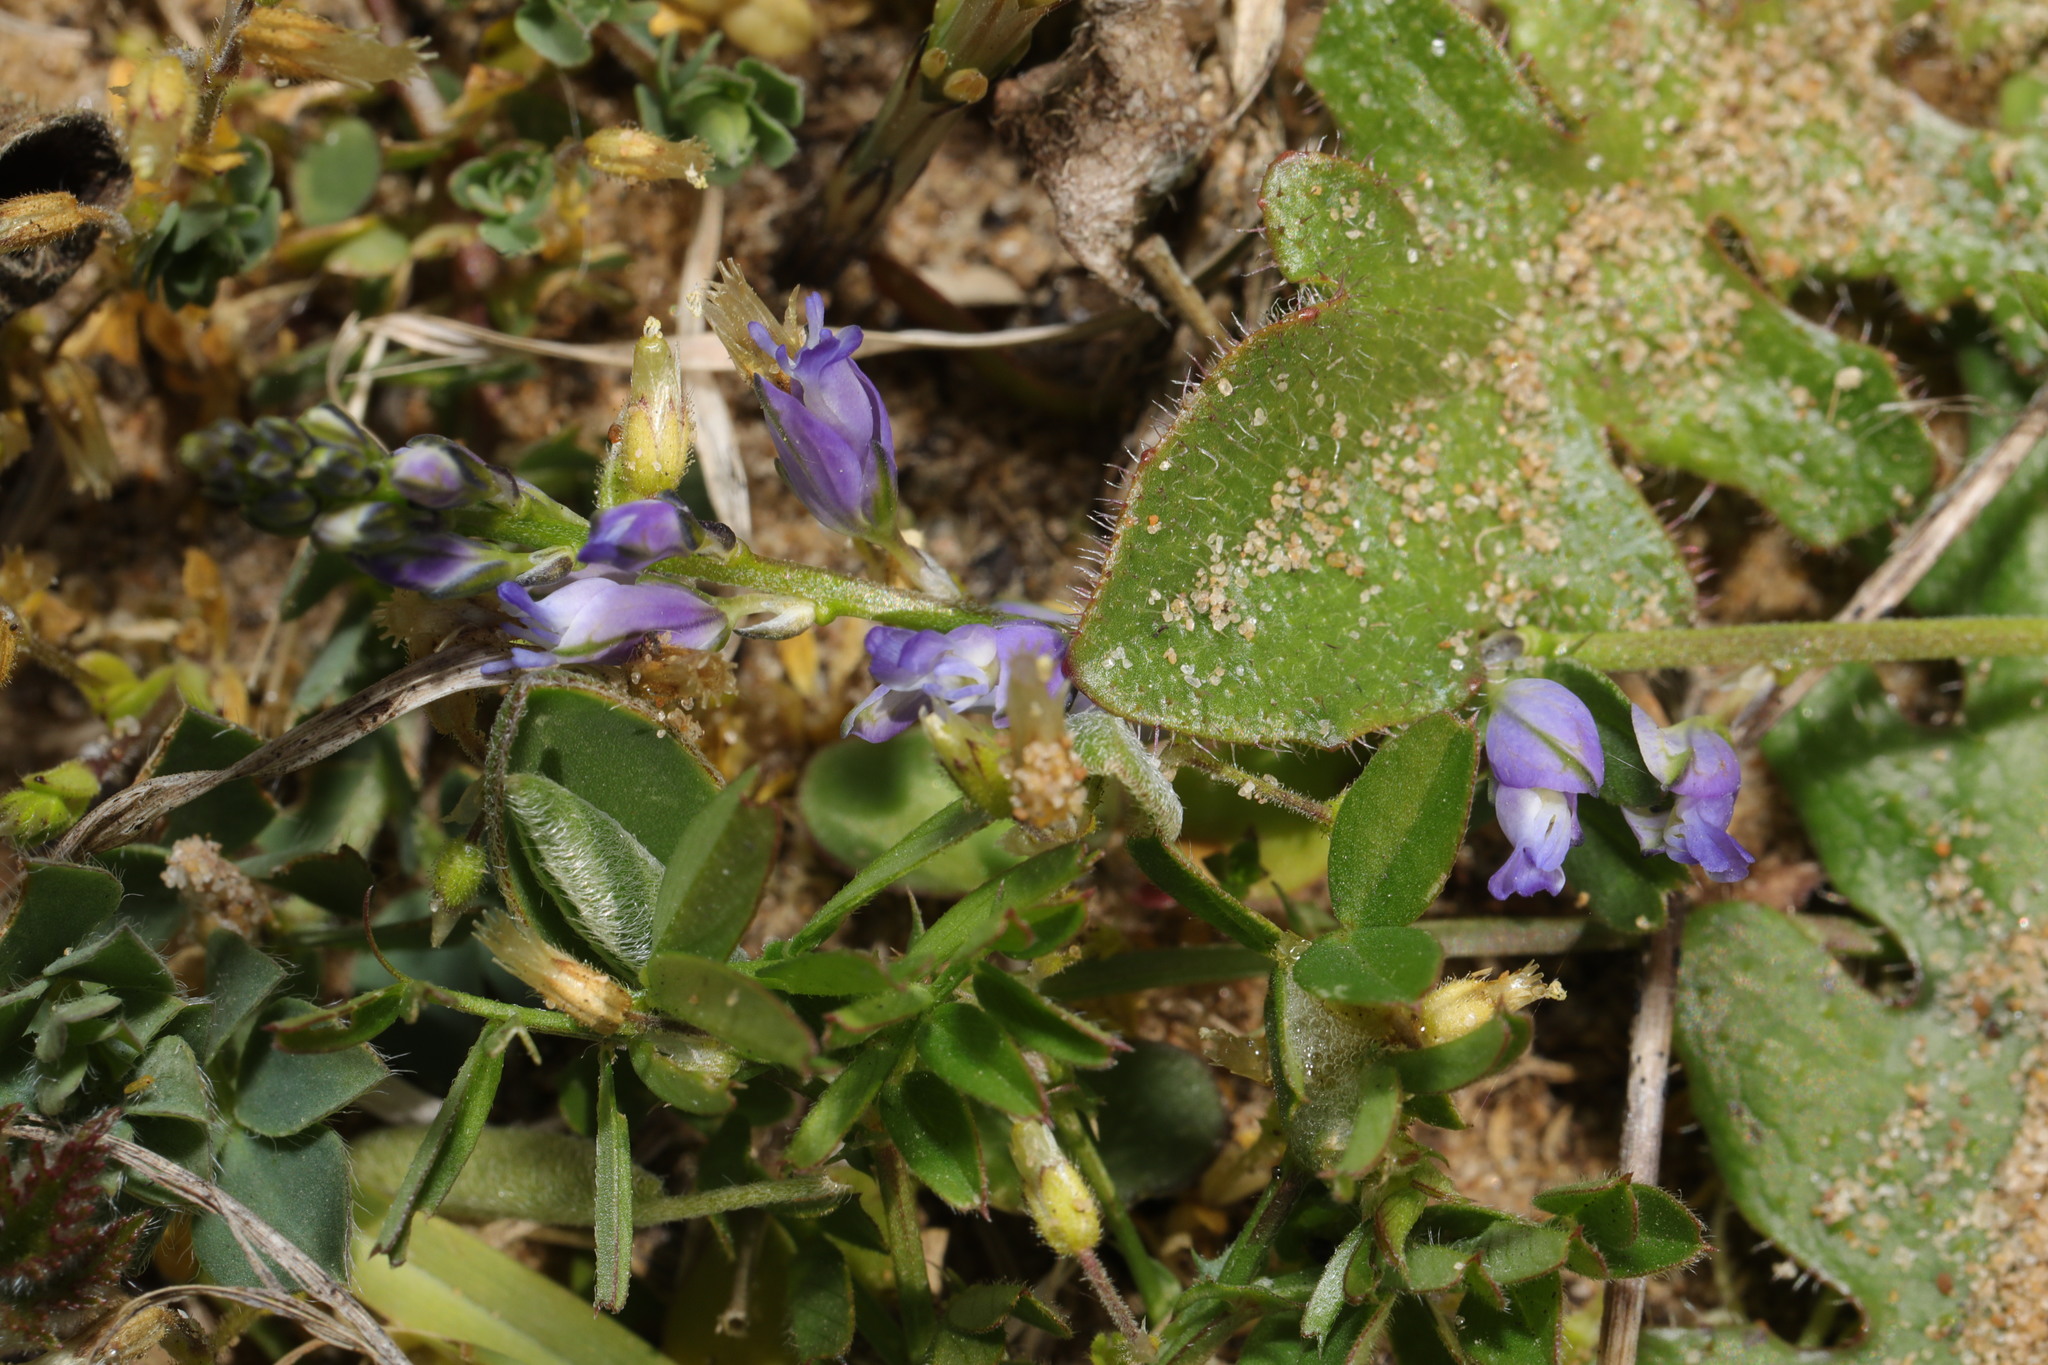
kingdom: Plantae
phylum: Tracheophyta
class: Magnoliopsida
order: Fabales
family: Polygalaceae
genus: Polygala
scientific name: Polygala vulgaris
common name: Common milkwort
